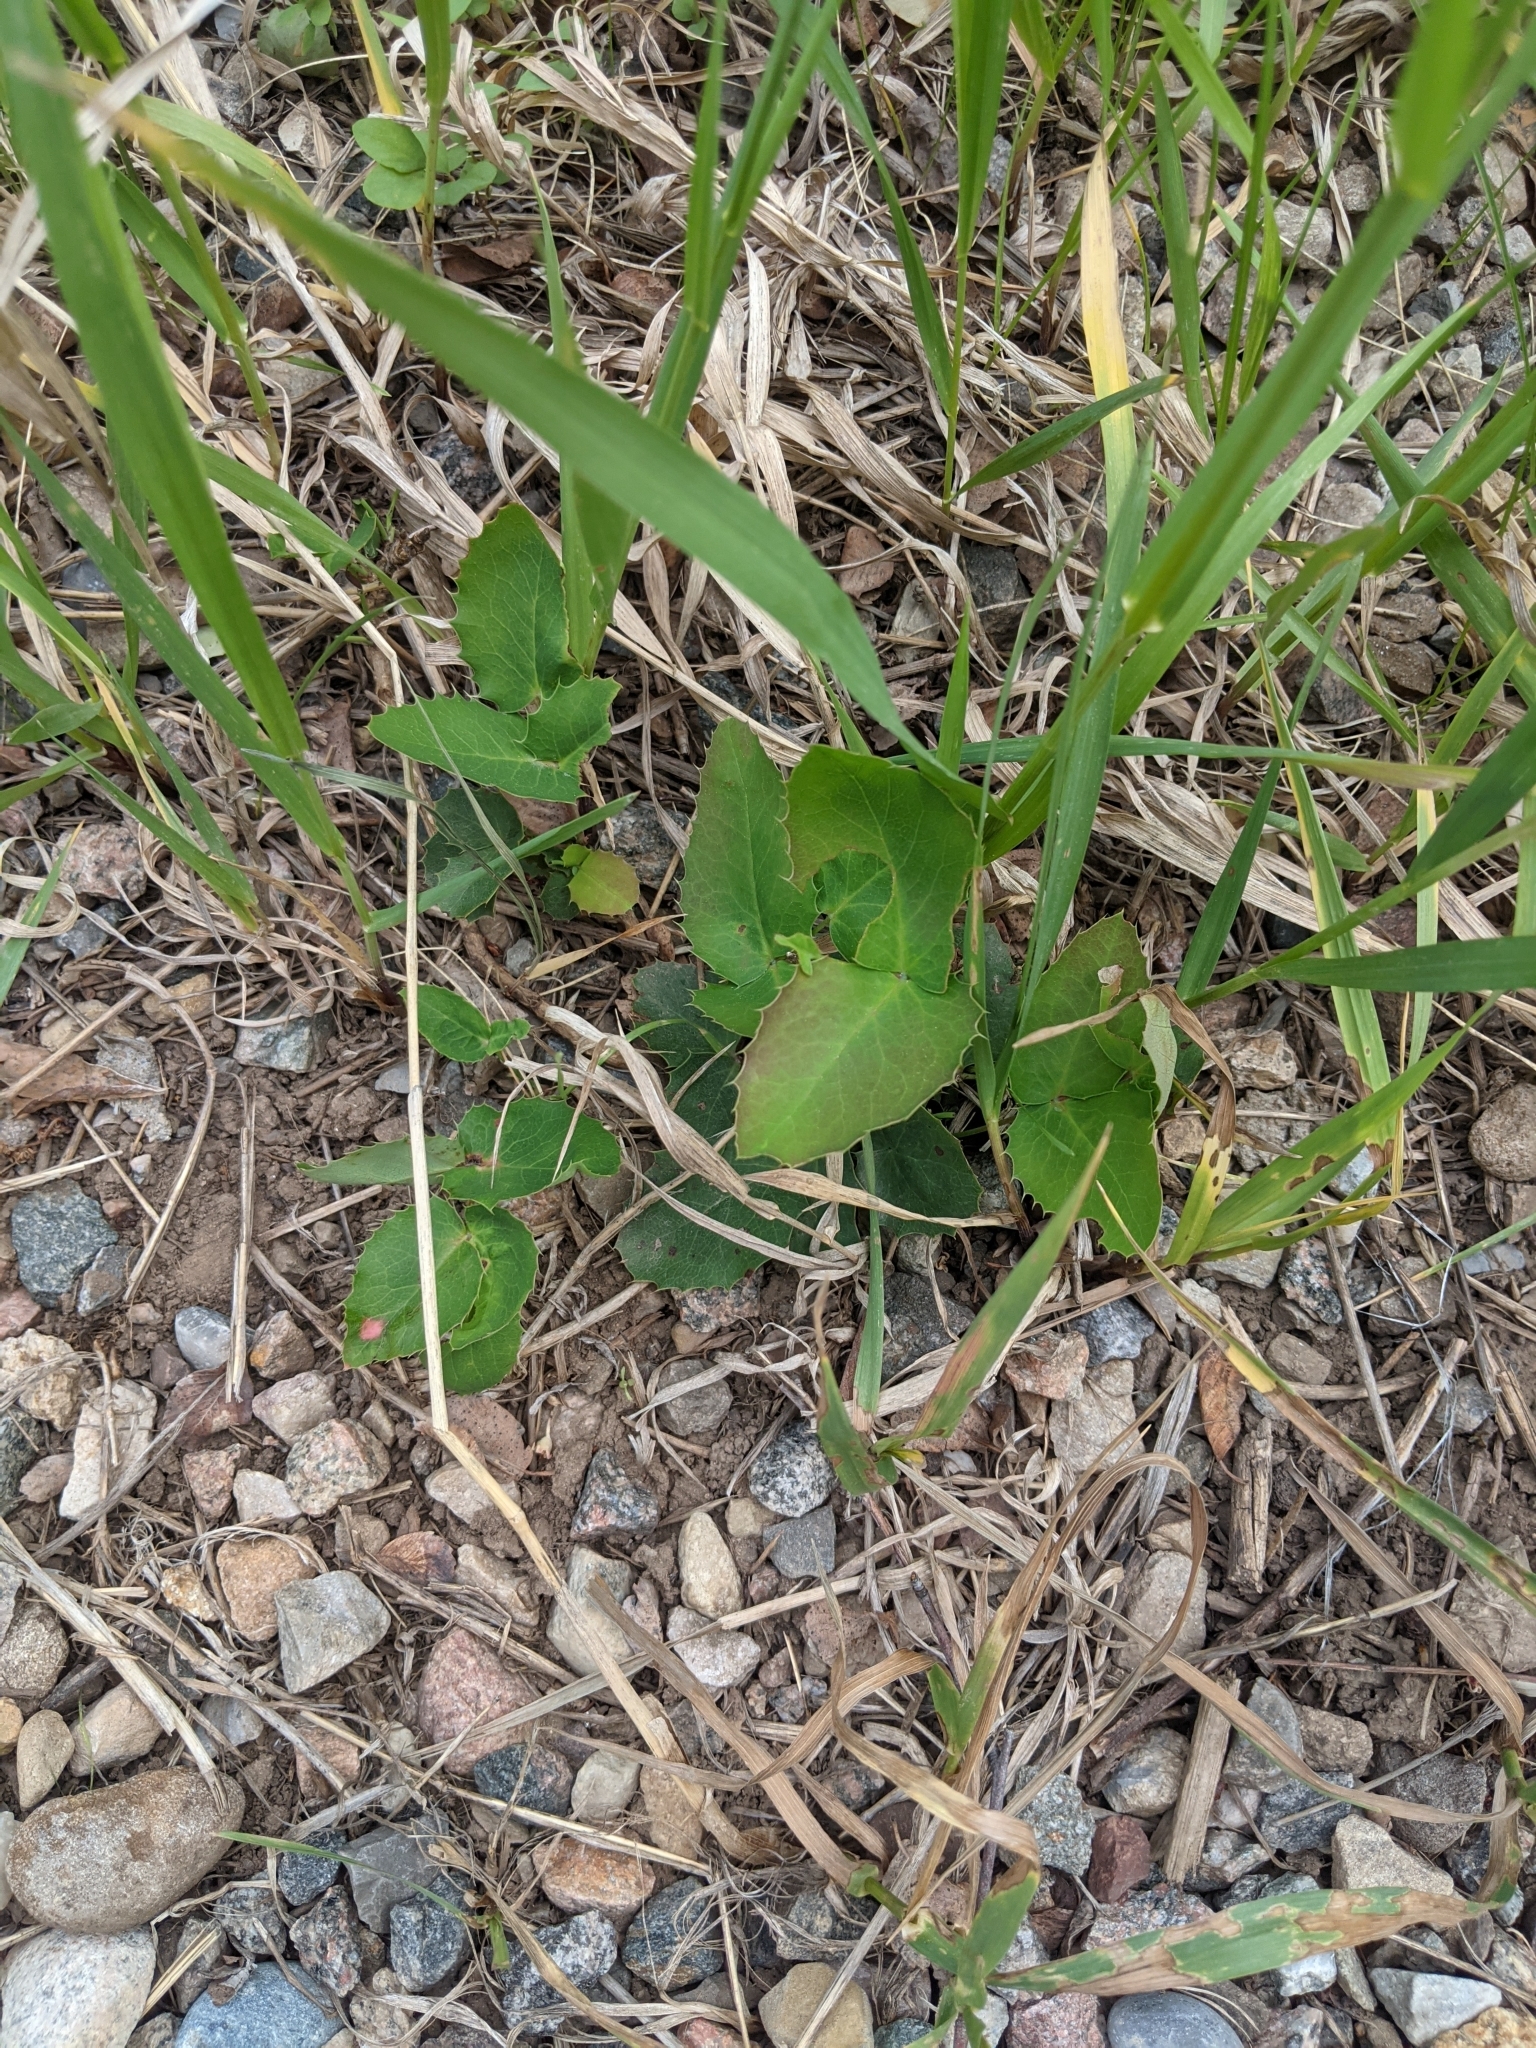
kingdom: Plantae
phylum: Tracheophyta
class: Magnoliopsida
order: Ranunculales
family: Berberidaceae
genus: Mahonia
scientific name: Mahonia repens
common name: Creeping oregon-grape
